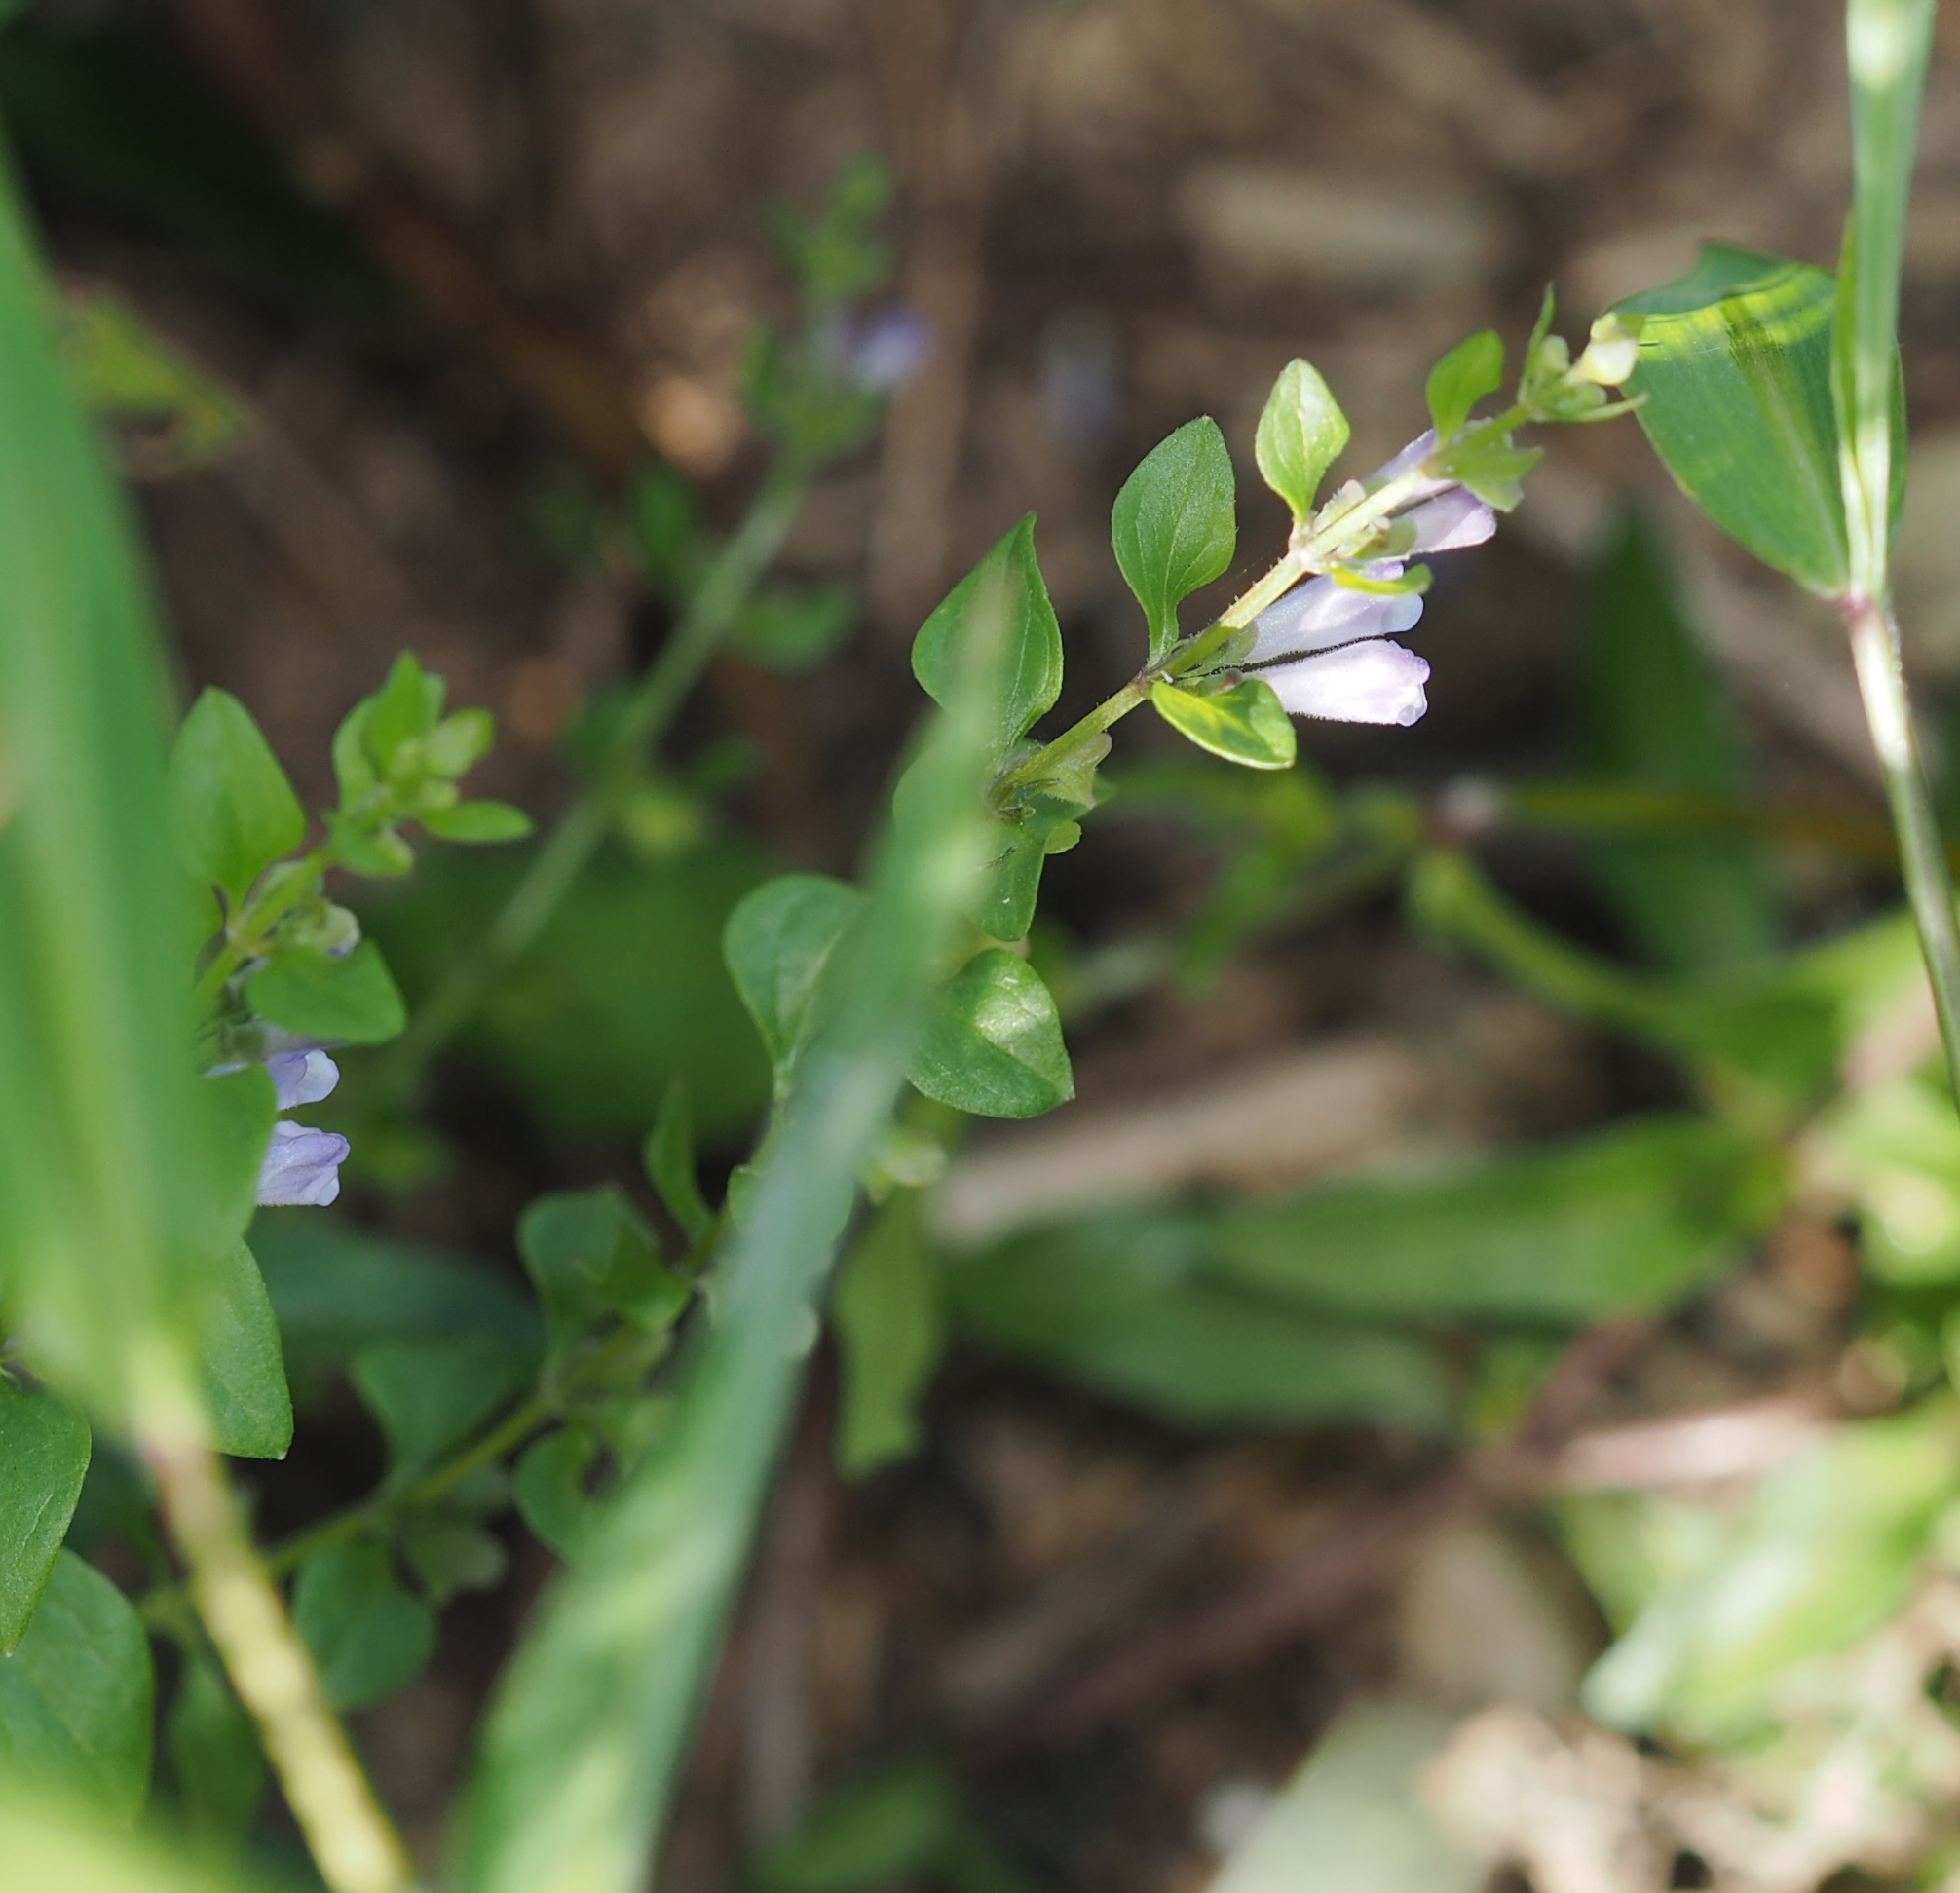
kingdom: Plantae
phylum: Tracheophyta
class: Magnoliopsida
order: Lamiales
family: Lamiaceae
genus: Scutellaria
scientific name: Scutellaria lateriflora
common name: Blue skullcap
